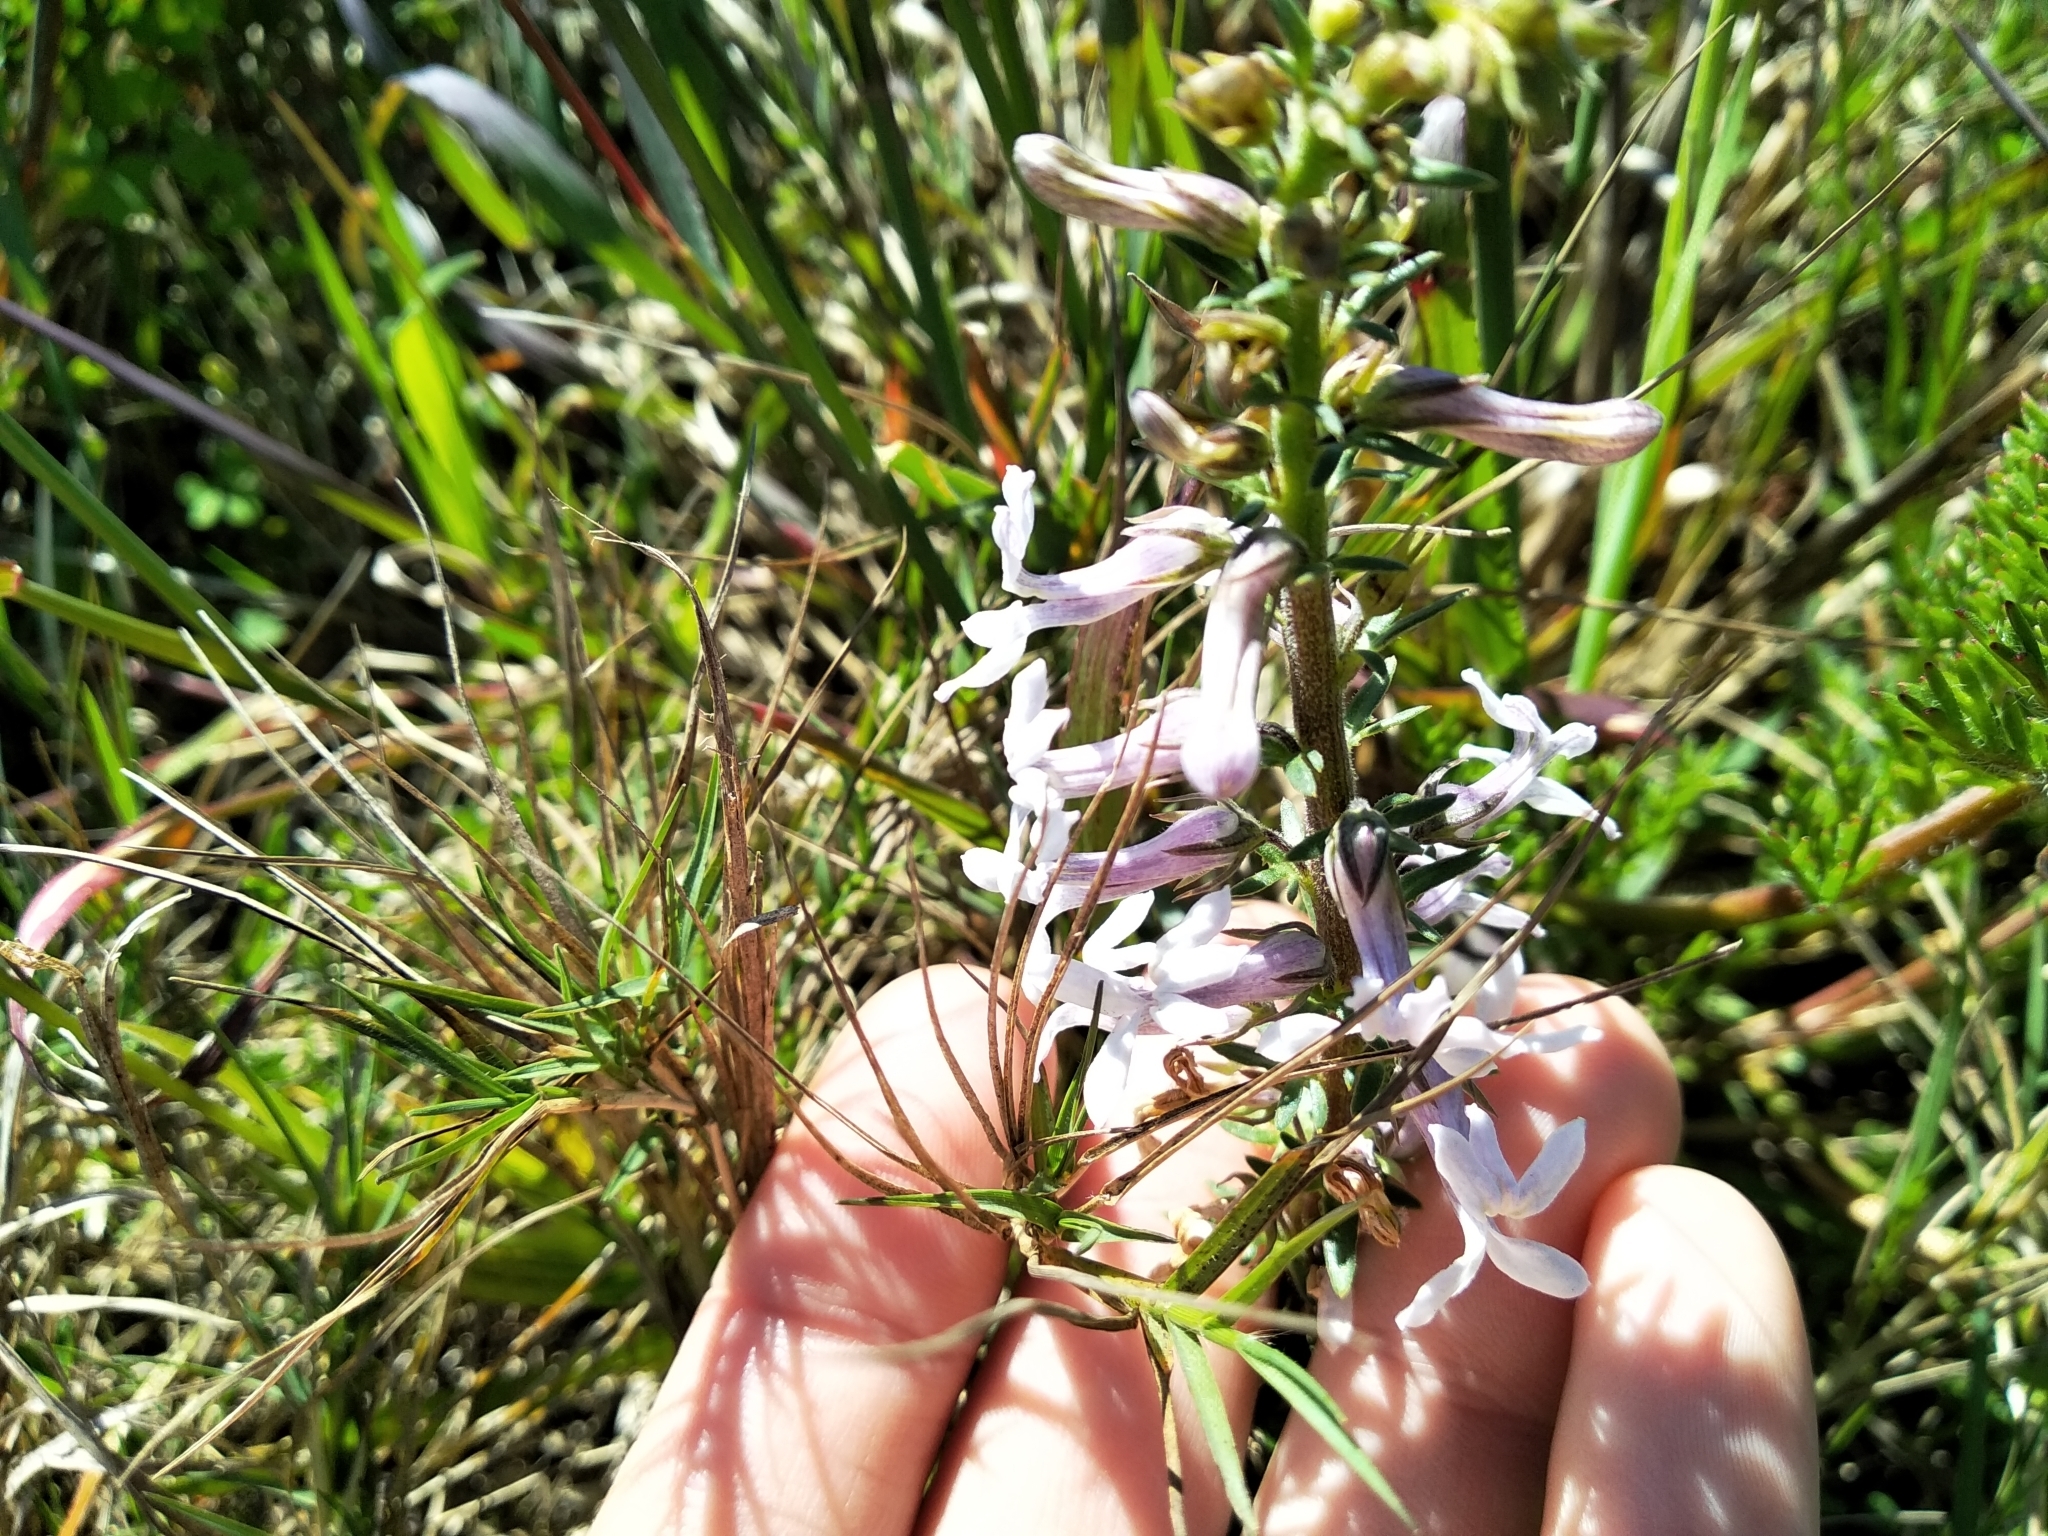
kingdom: Plantae
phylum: Tracheophyta
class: Magnoliopsida
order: Asterales
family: Campanulaceae
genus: Cyphia
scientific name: Cyphia bulbosa
